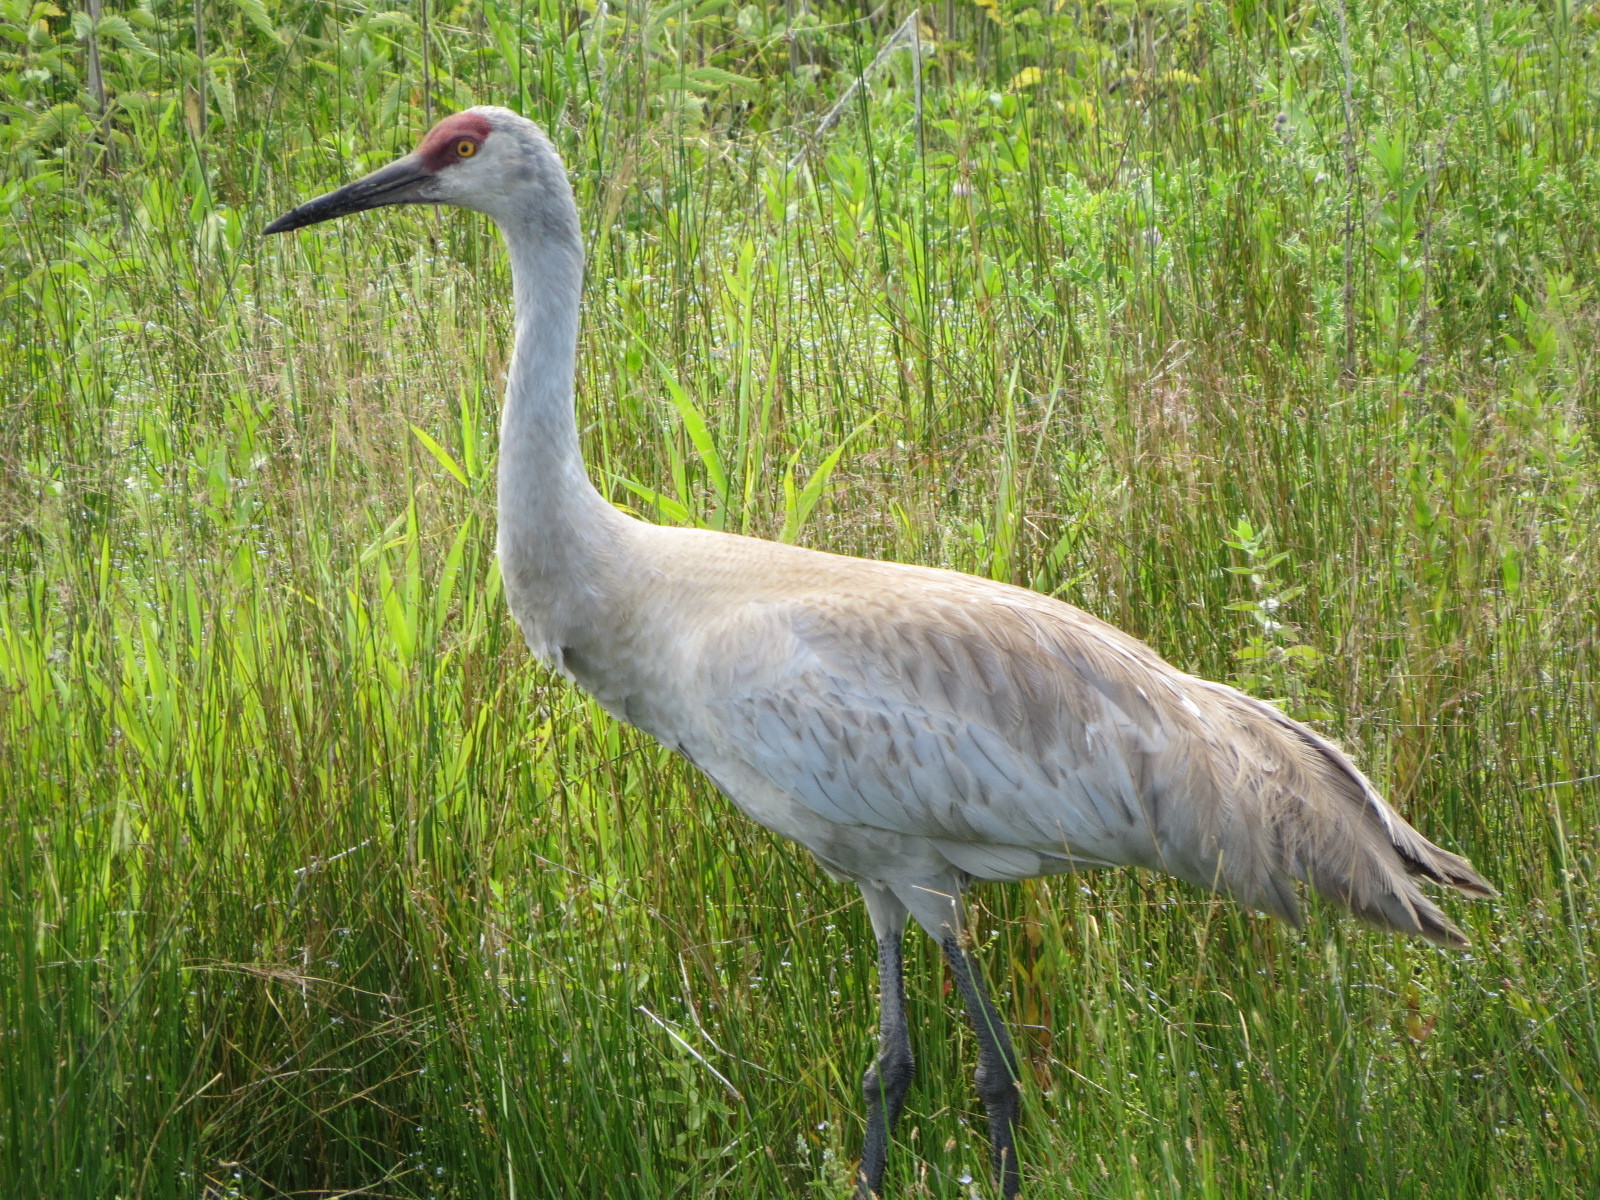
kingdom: Animalia
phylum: Chordata
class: Aves
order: Gruiformes
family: Gruidae
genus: Grus
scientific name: Grus canadensis
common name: Sandhill crane
